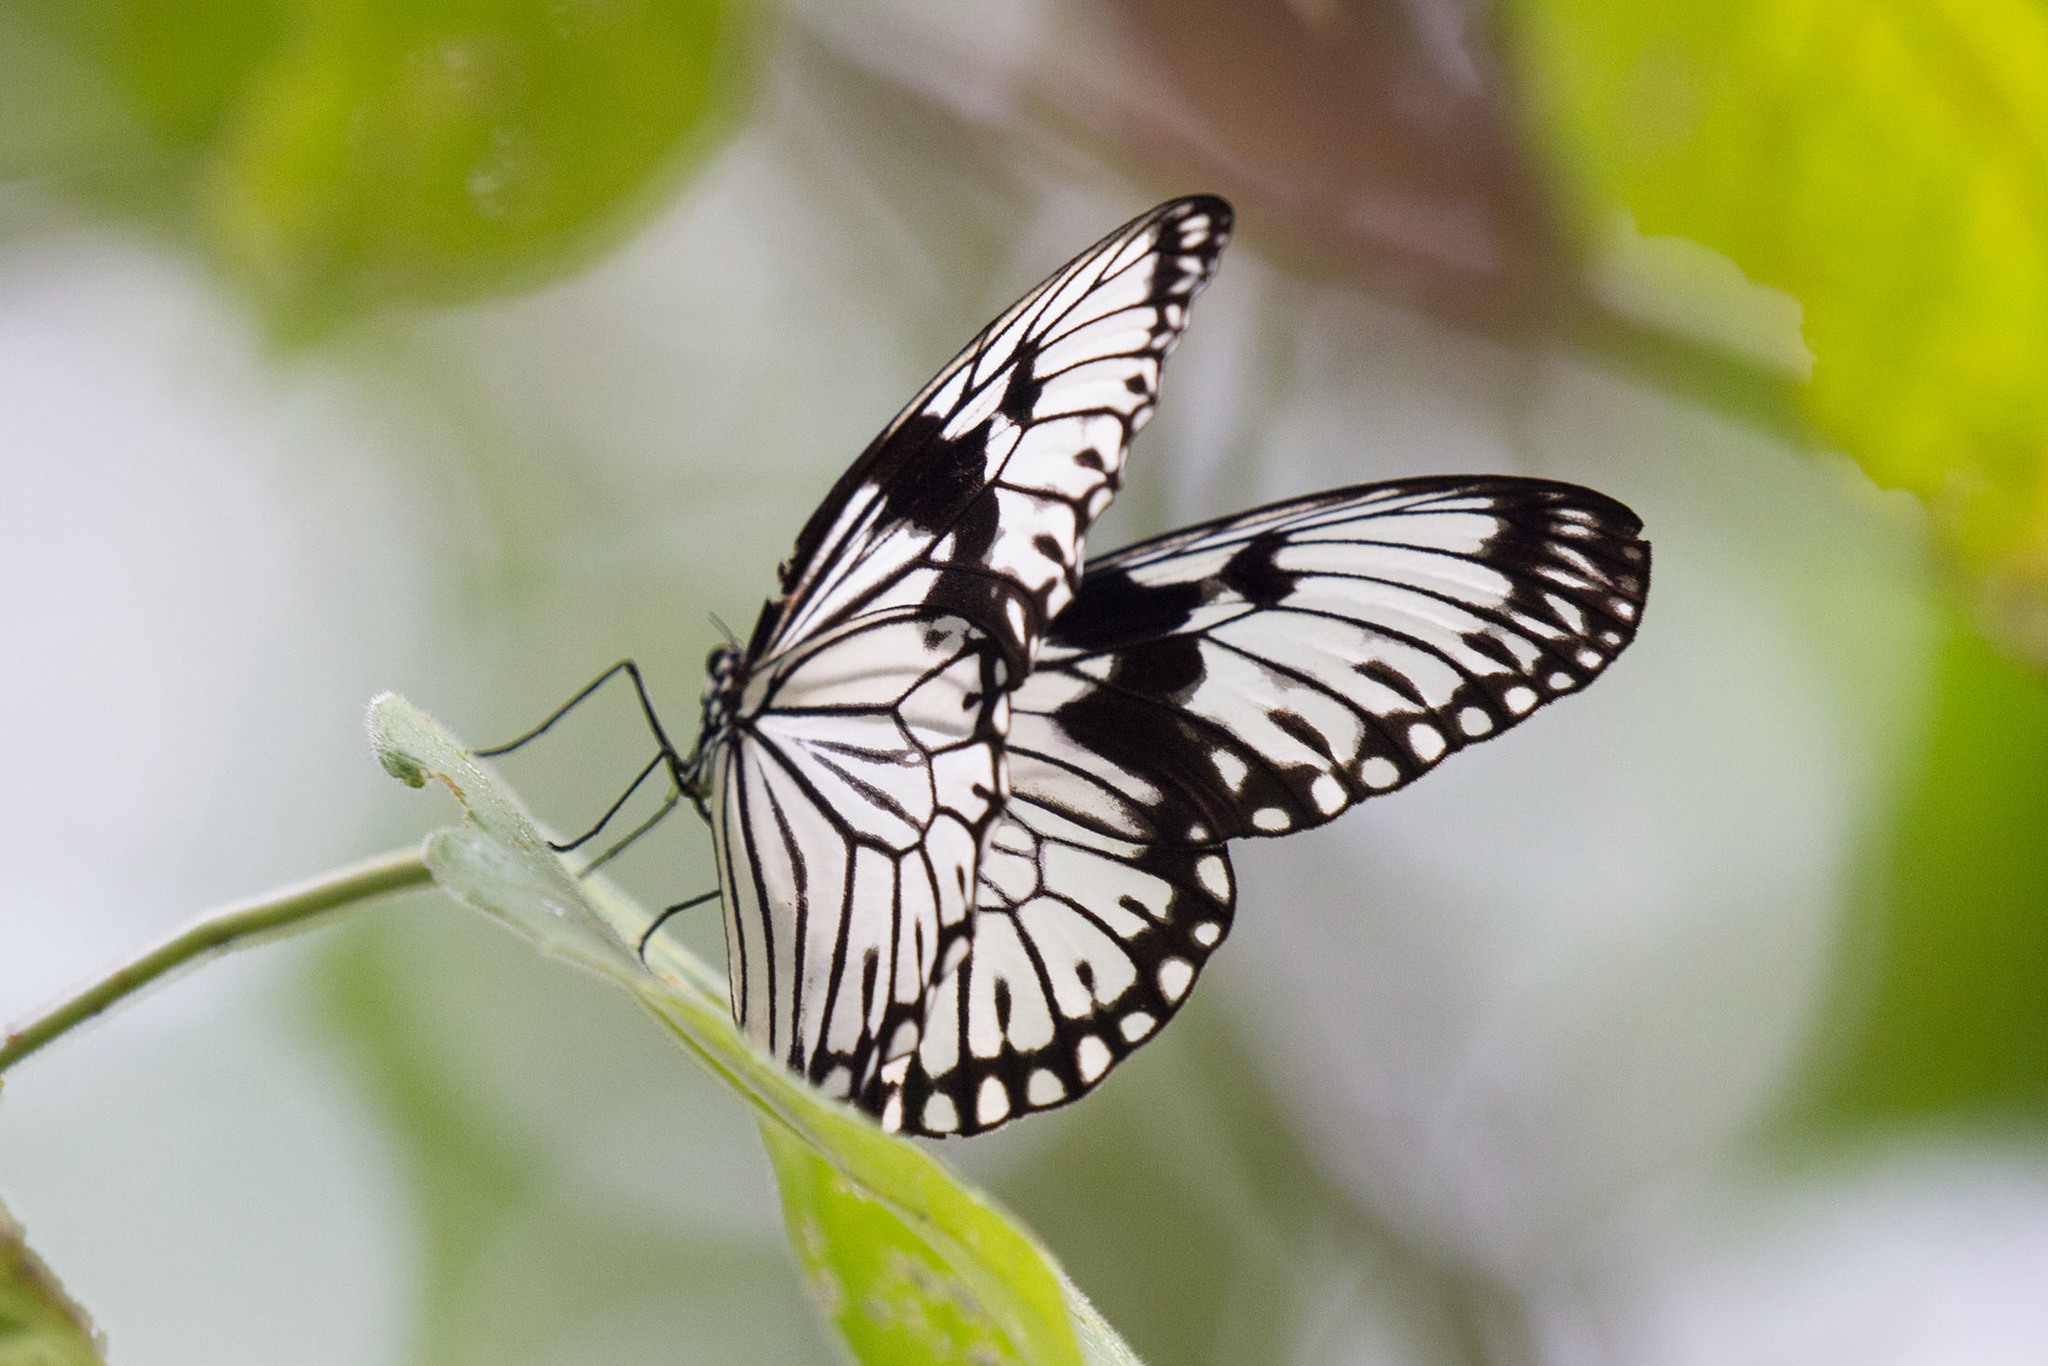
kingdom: Animalia
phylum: Arthropoda
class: Insecta
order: Lepidoptera
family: Nymphalidae
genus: Idea
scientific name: Idea durvillei
